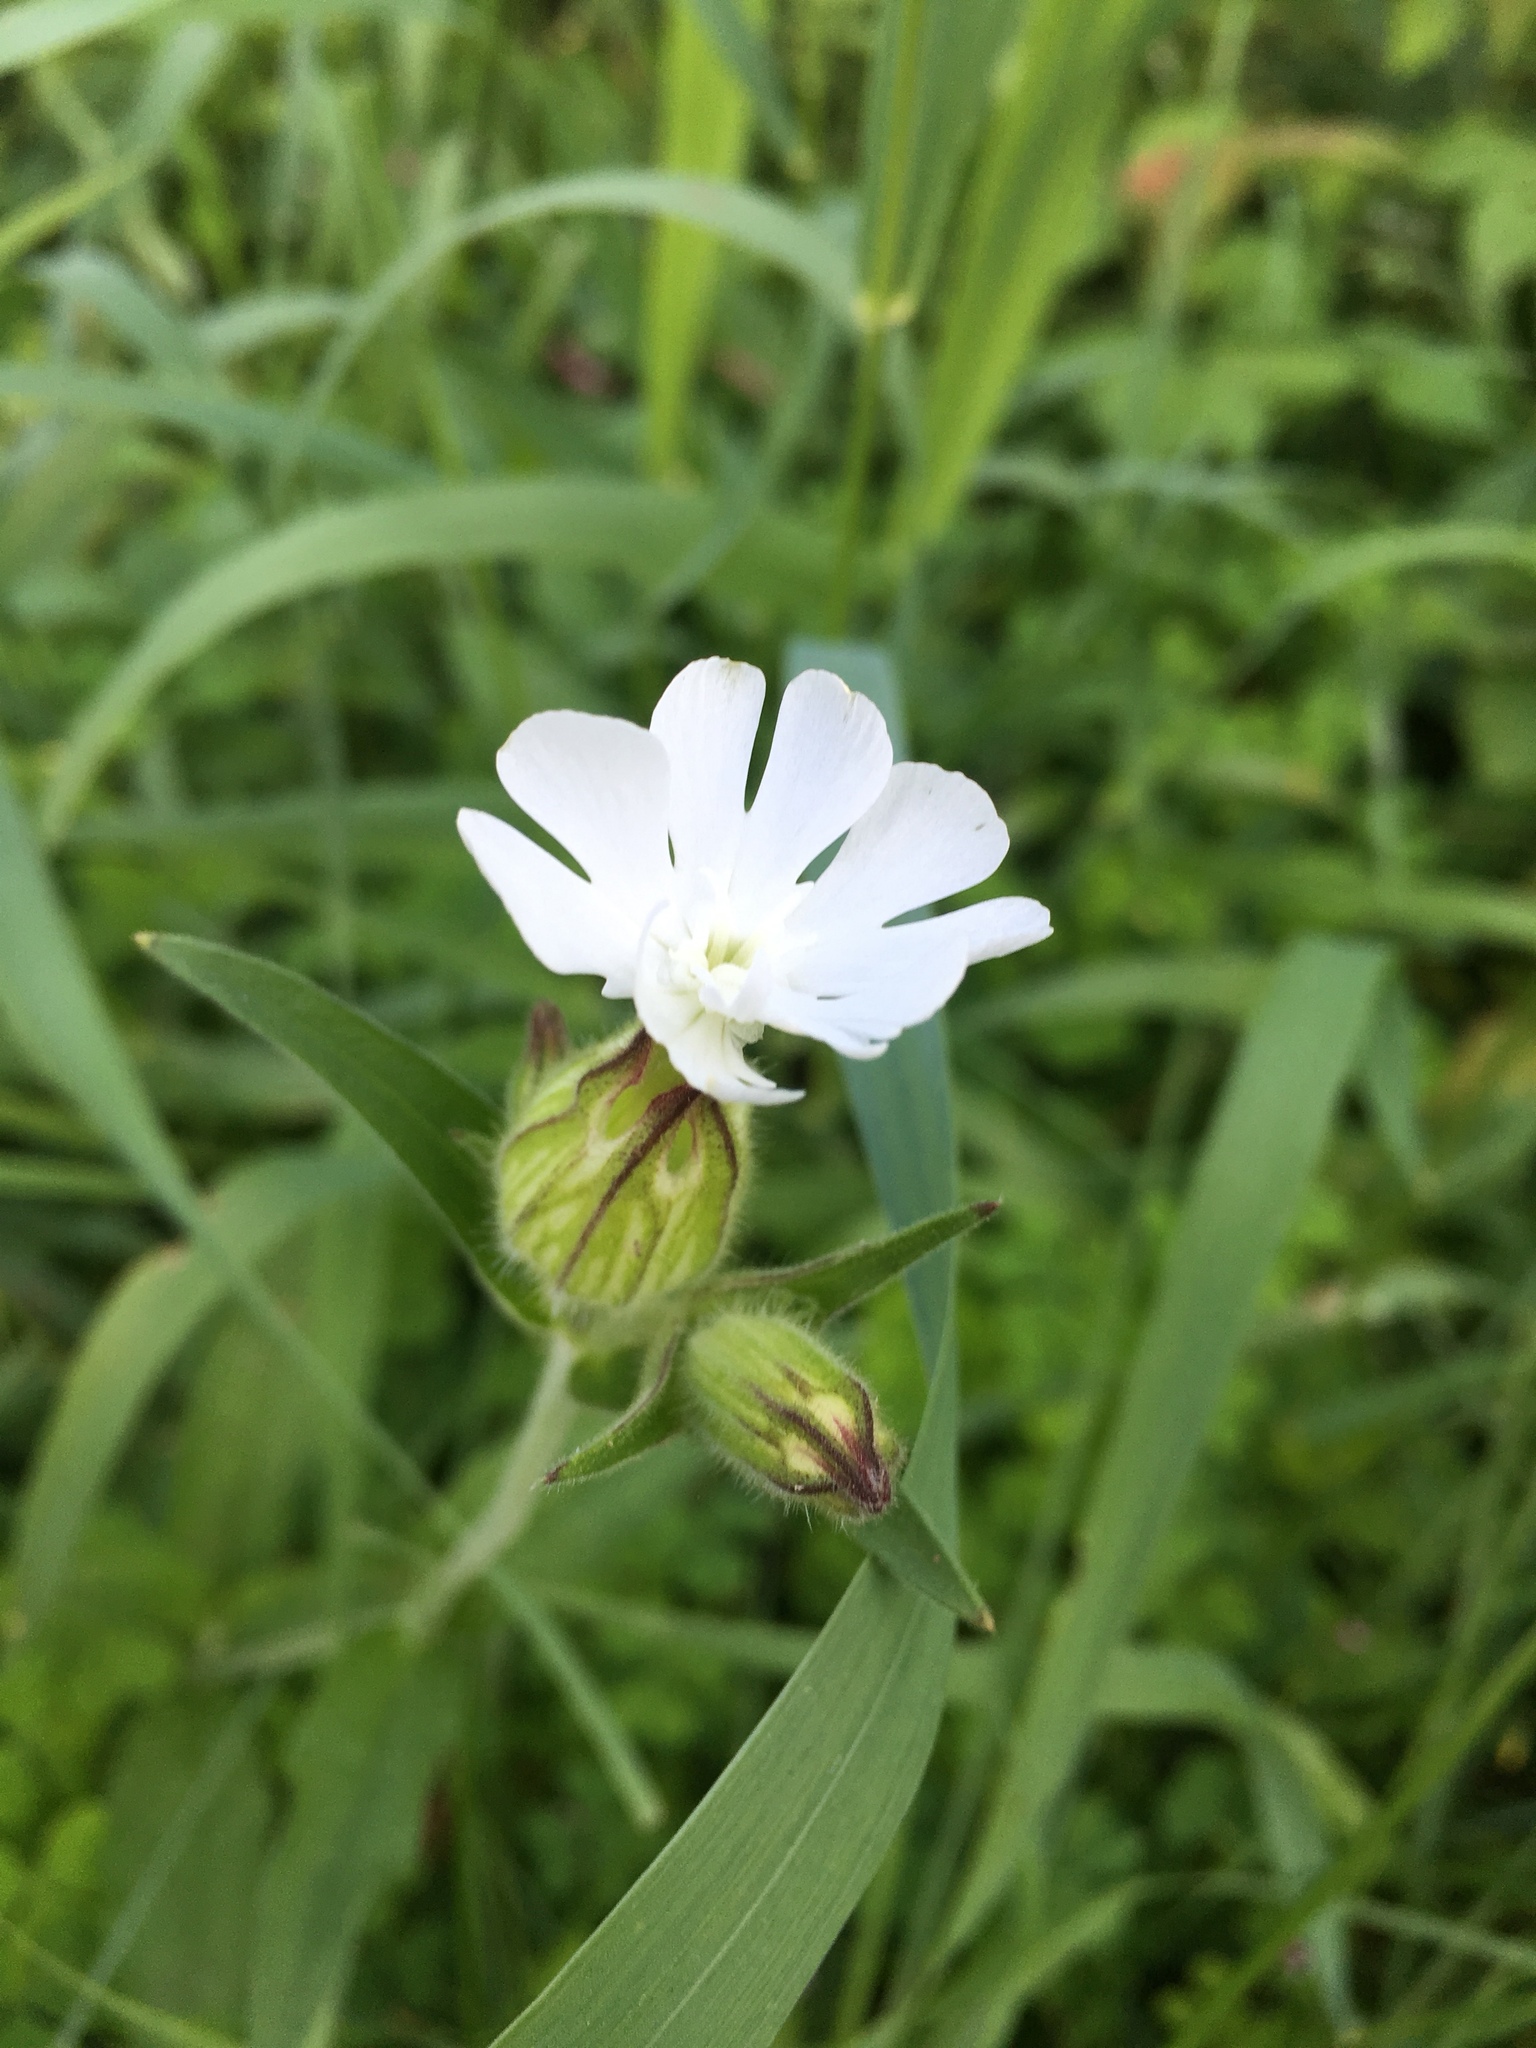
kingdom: Plantae
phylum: Tracheophyta
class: Magnoliopsida
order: Caryophyllales
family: Caryophyllaceae
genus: Silene
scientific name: Silene latifolia
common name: White campion
